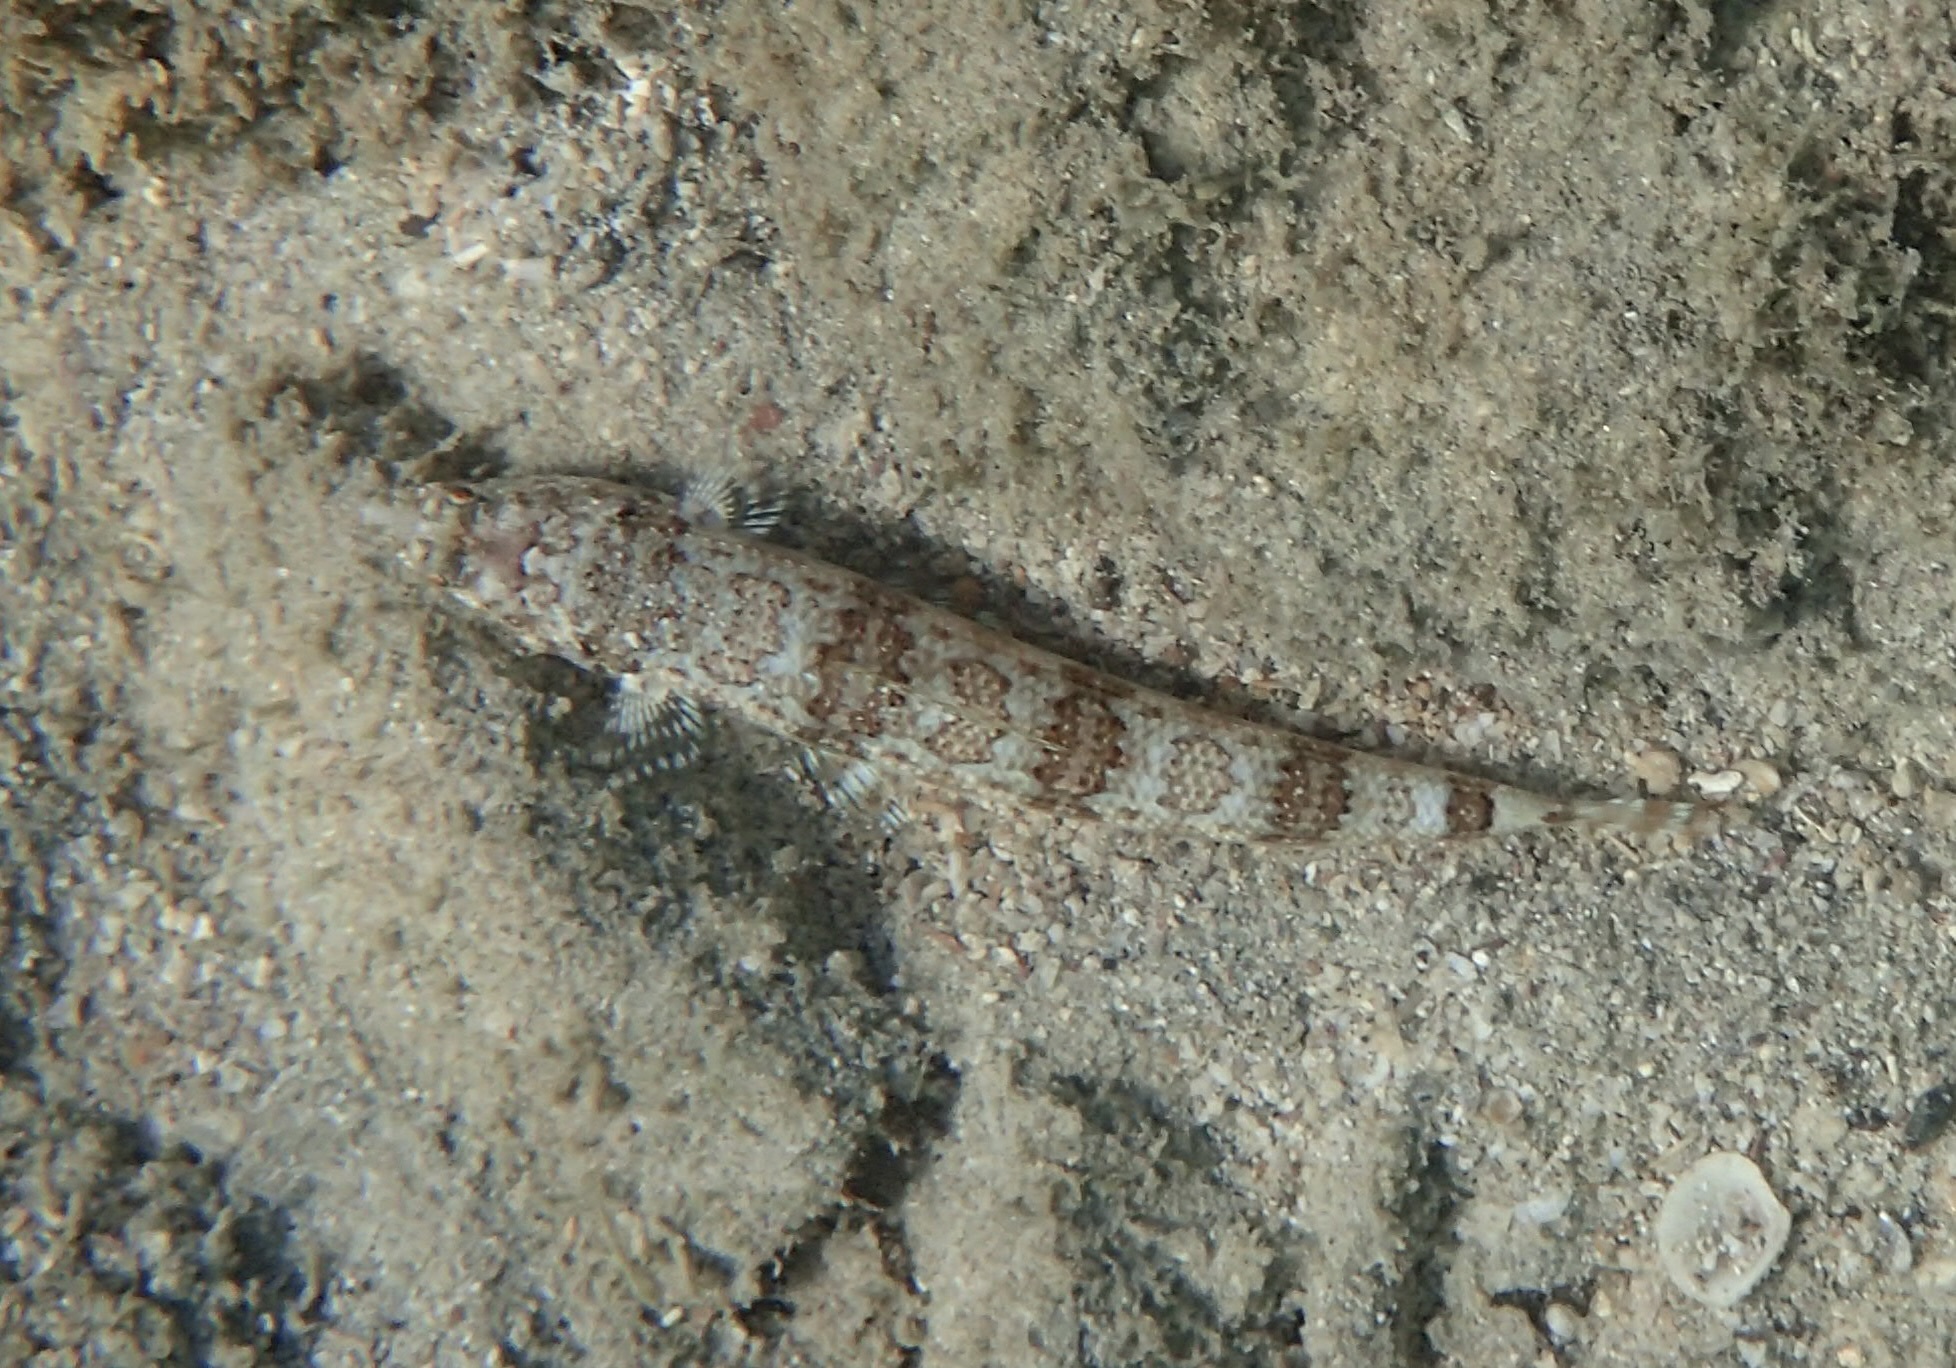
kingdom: Animalia
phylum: Chordata
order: Aulopiformes
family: Synodontidae
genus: Synodus
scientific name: Synodus lacertinus
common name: Calico lizardfish
